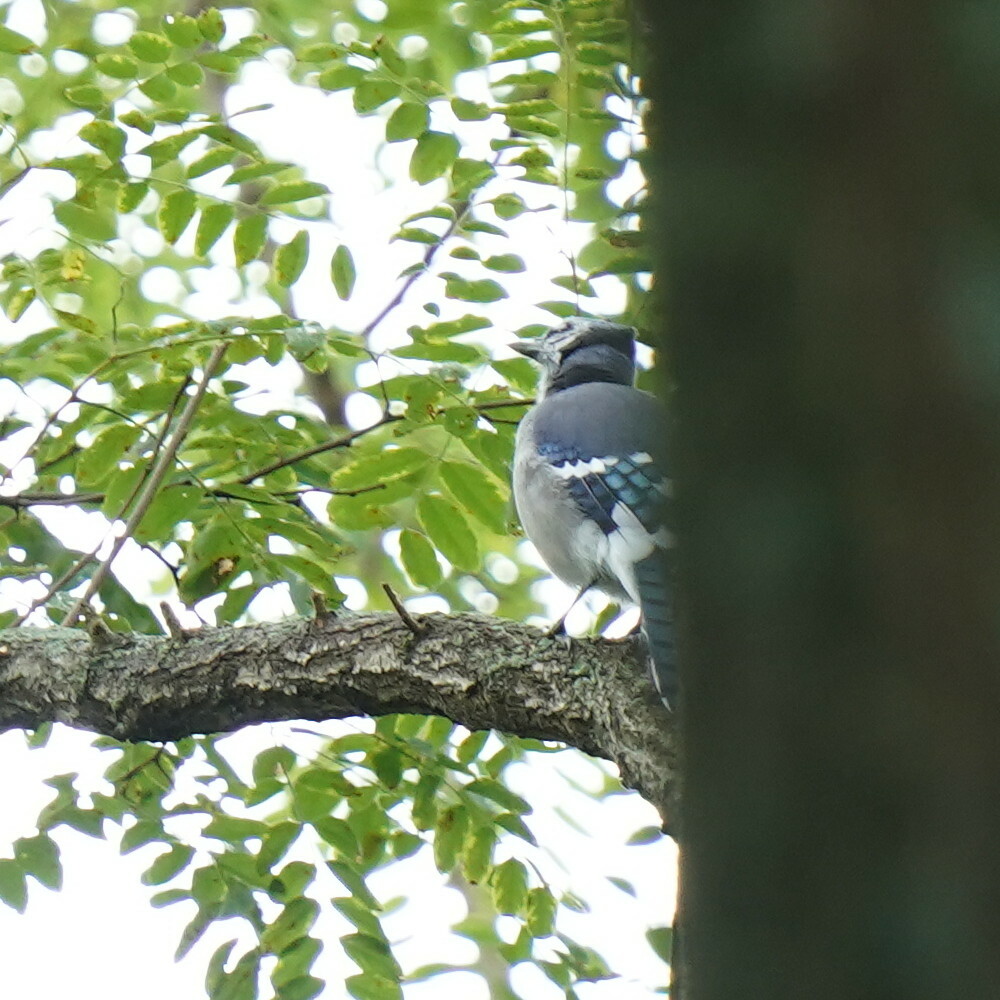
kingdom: Animalia
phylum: Chordata
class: Aves
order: Passeriformes
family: Corvidae
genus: Cyanocitta
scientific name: Cyanocitta cristata
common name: Blue jay
